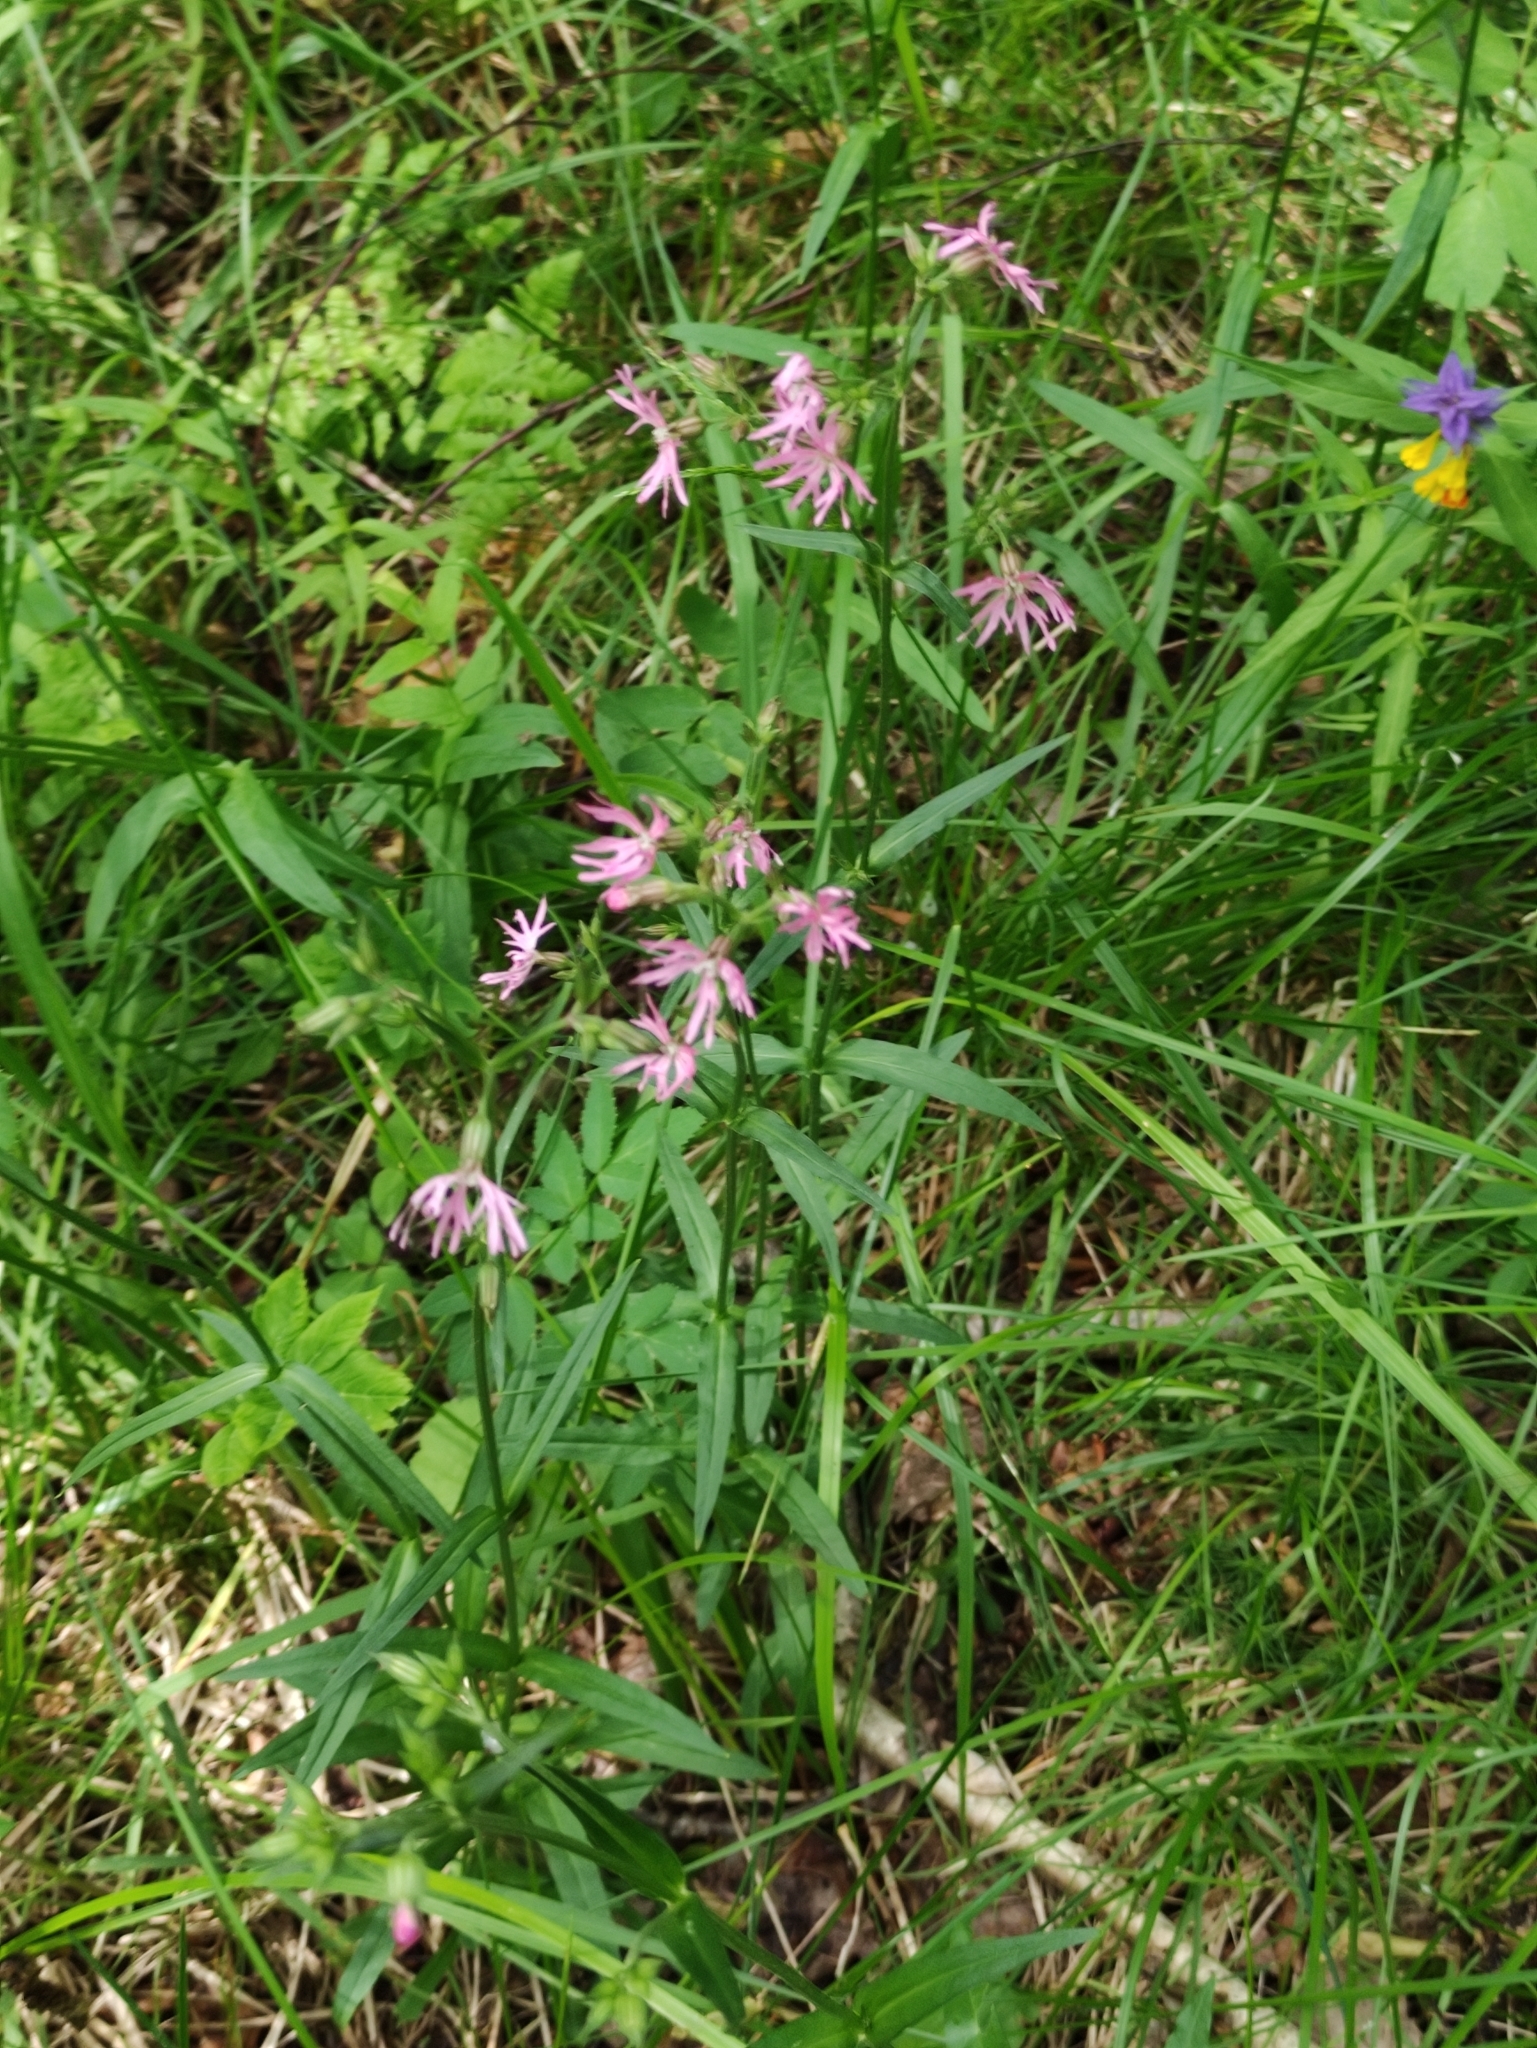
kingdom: Plantae
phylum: Tracheophyta
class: Magnoliopsida
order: Caryophyllales
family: Caryophyllaceae
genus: Silene
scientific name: Silene flos-cuculi
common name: Ragged-robin
